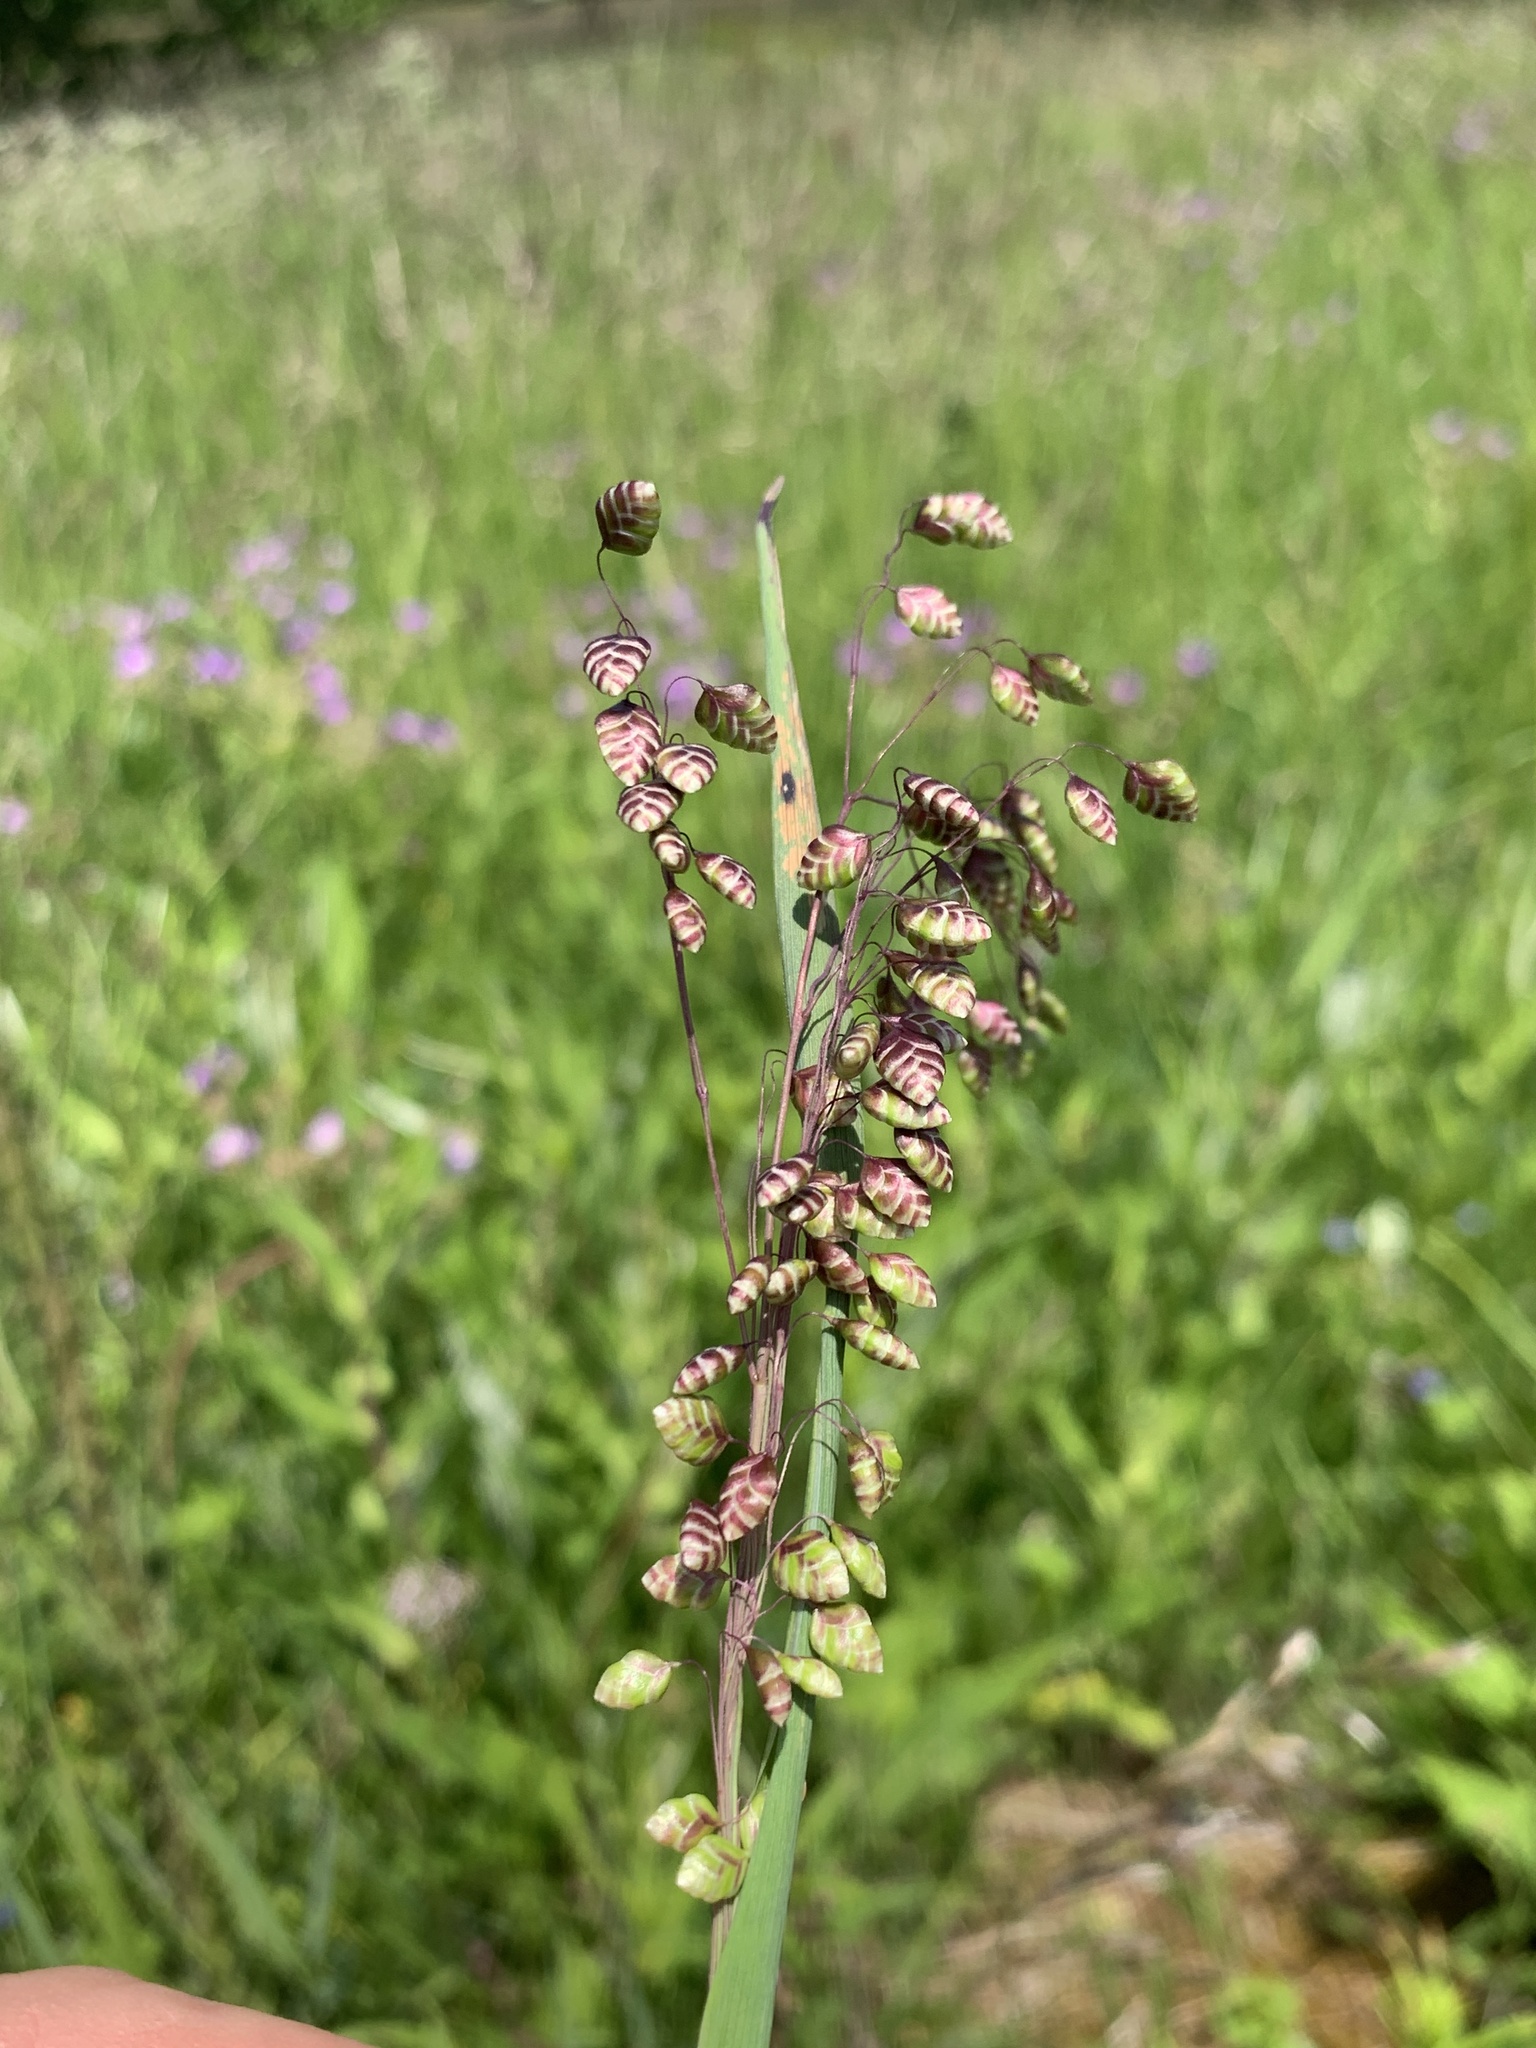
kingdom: Plantae
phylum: Tracheophyta
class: Liliopsida
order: Poales
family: Poaceae
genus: Briza
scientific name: Briza media
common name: Quaking grass
